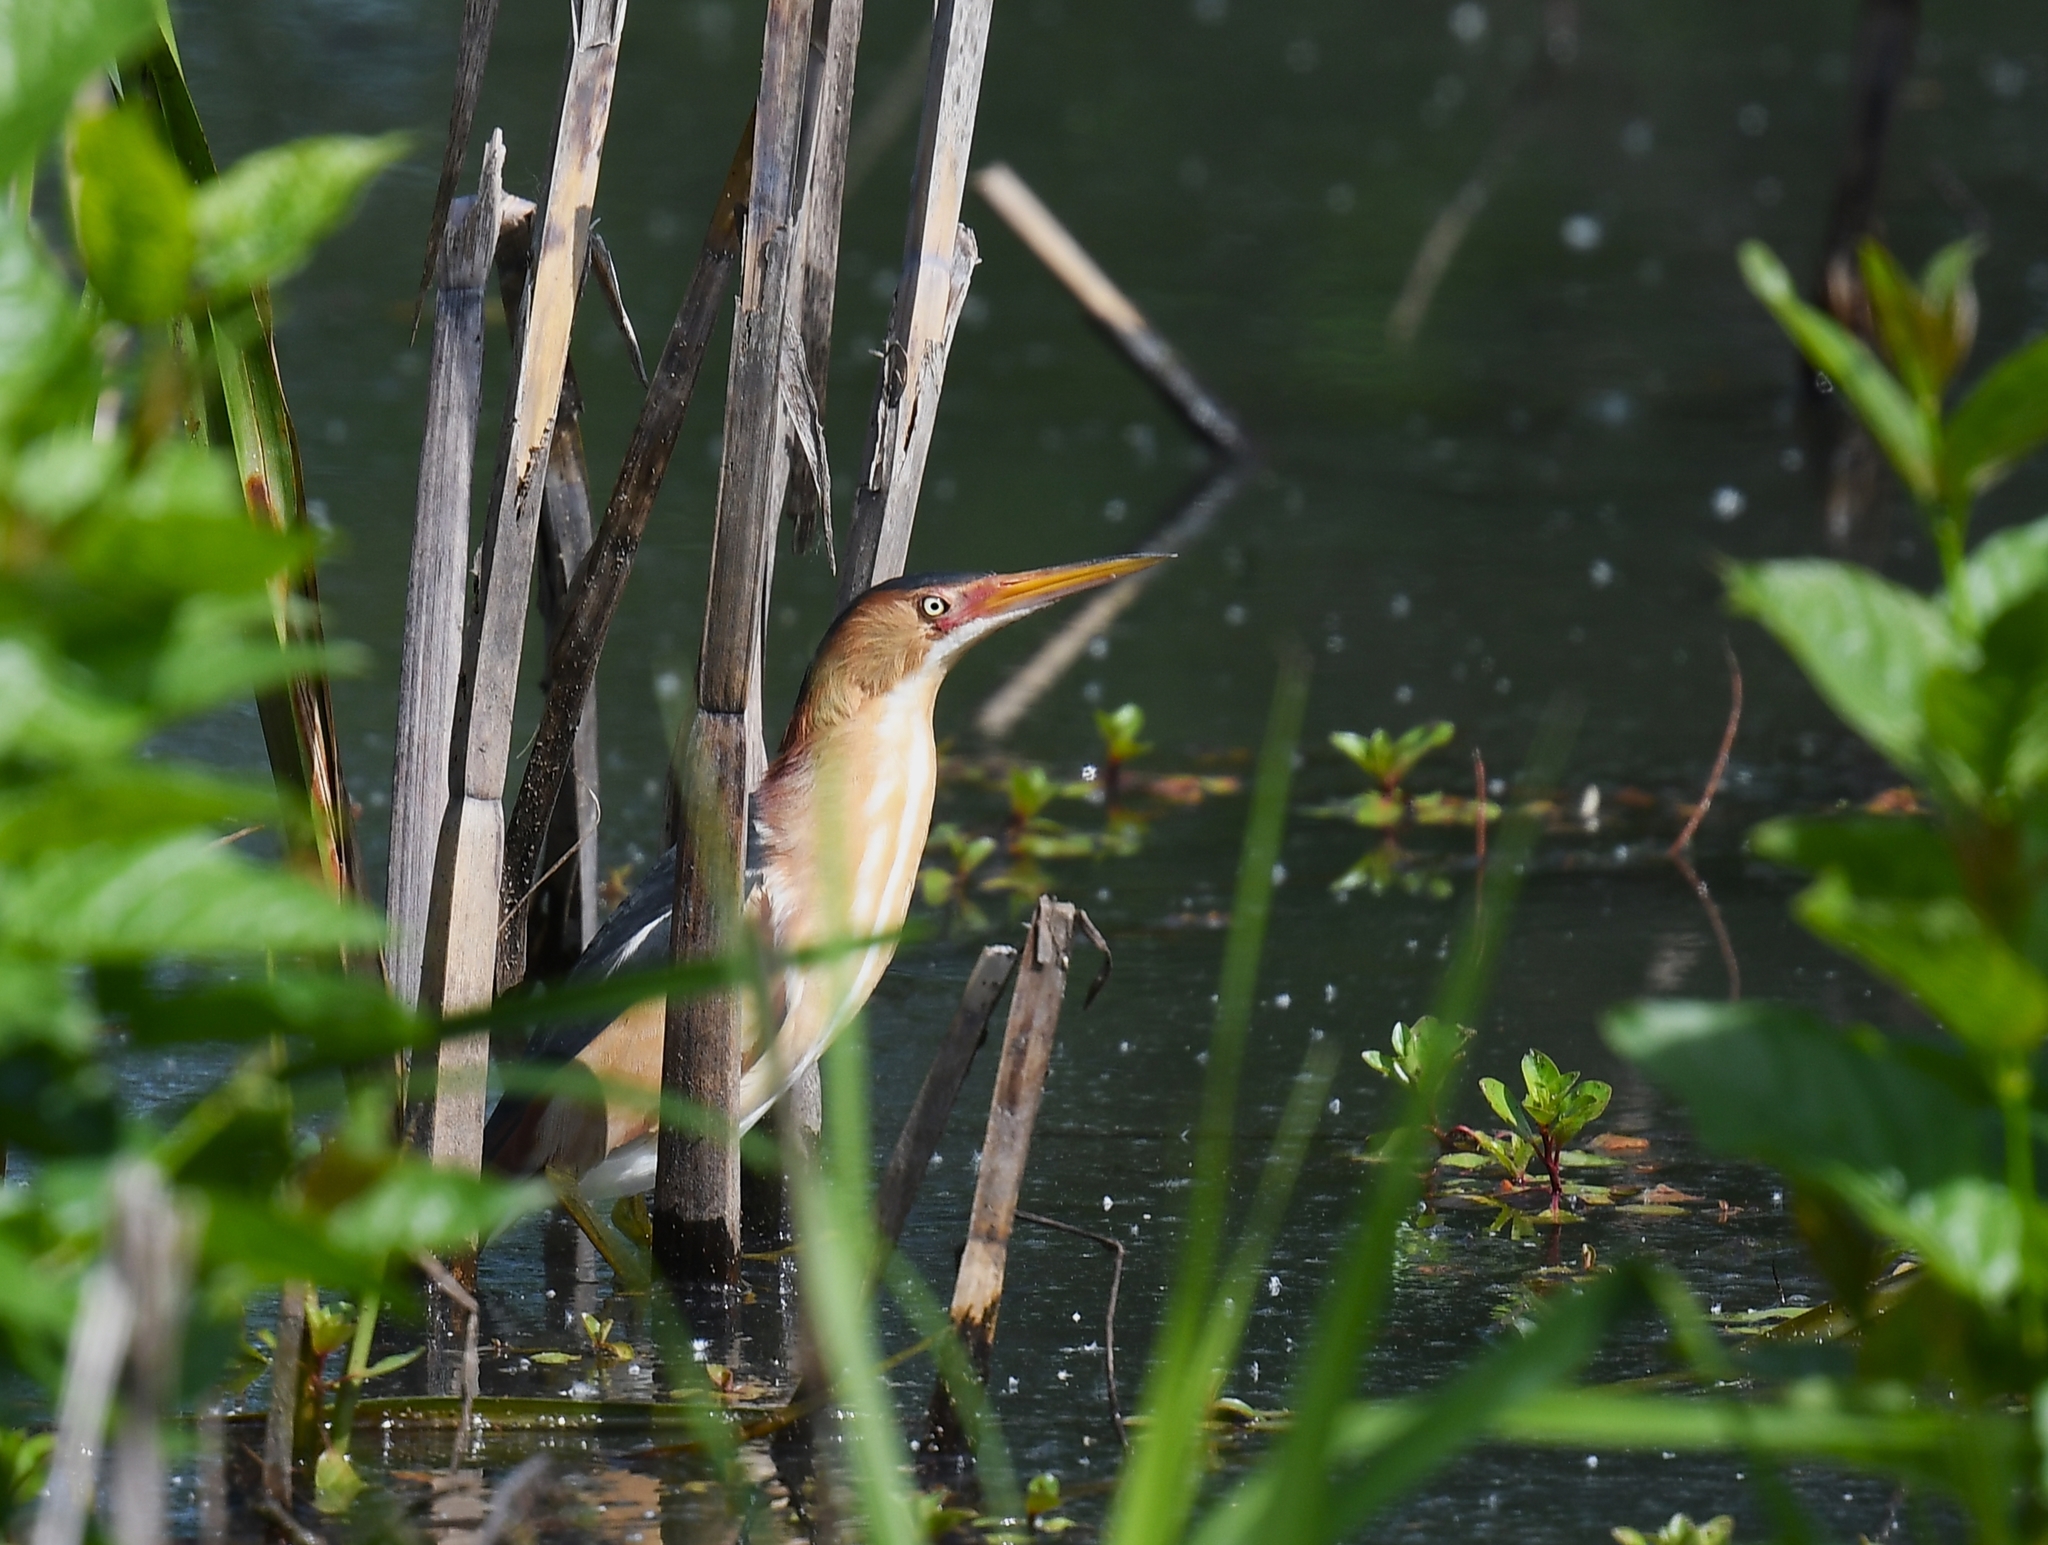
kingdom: Animalia
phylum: Chordata
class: Aves
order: Pelecaniformes
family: Ardeidae
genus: Ixobrychus
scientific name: Ixobrychus exilis
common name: Least bittern
